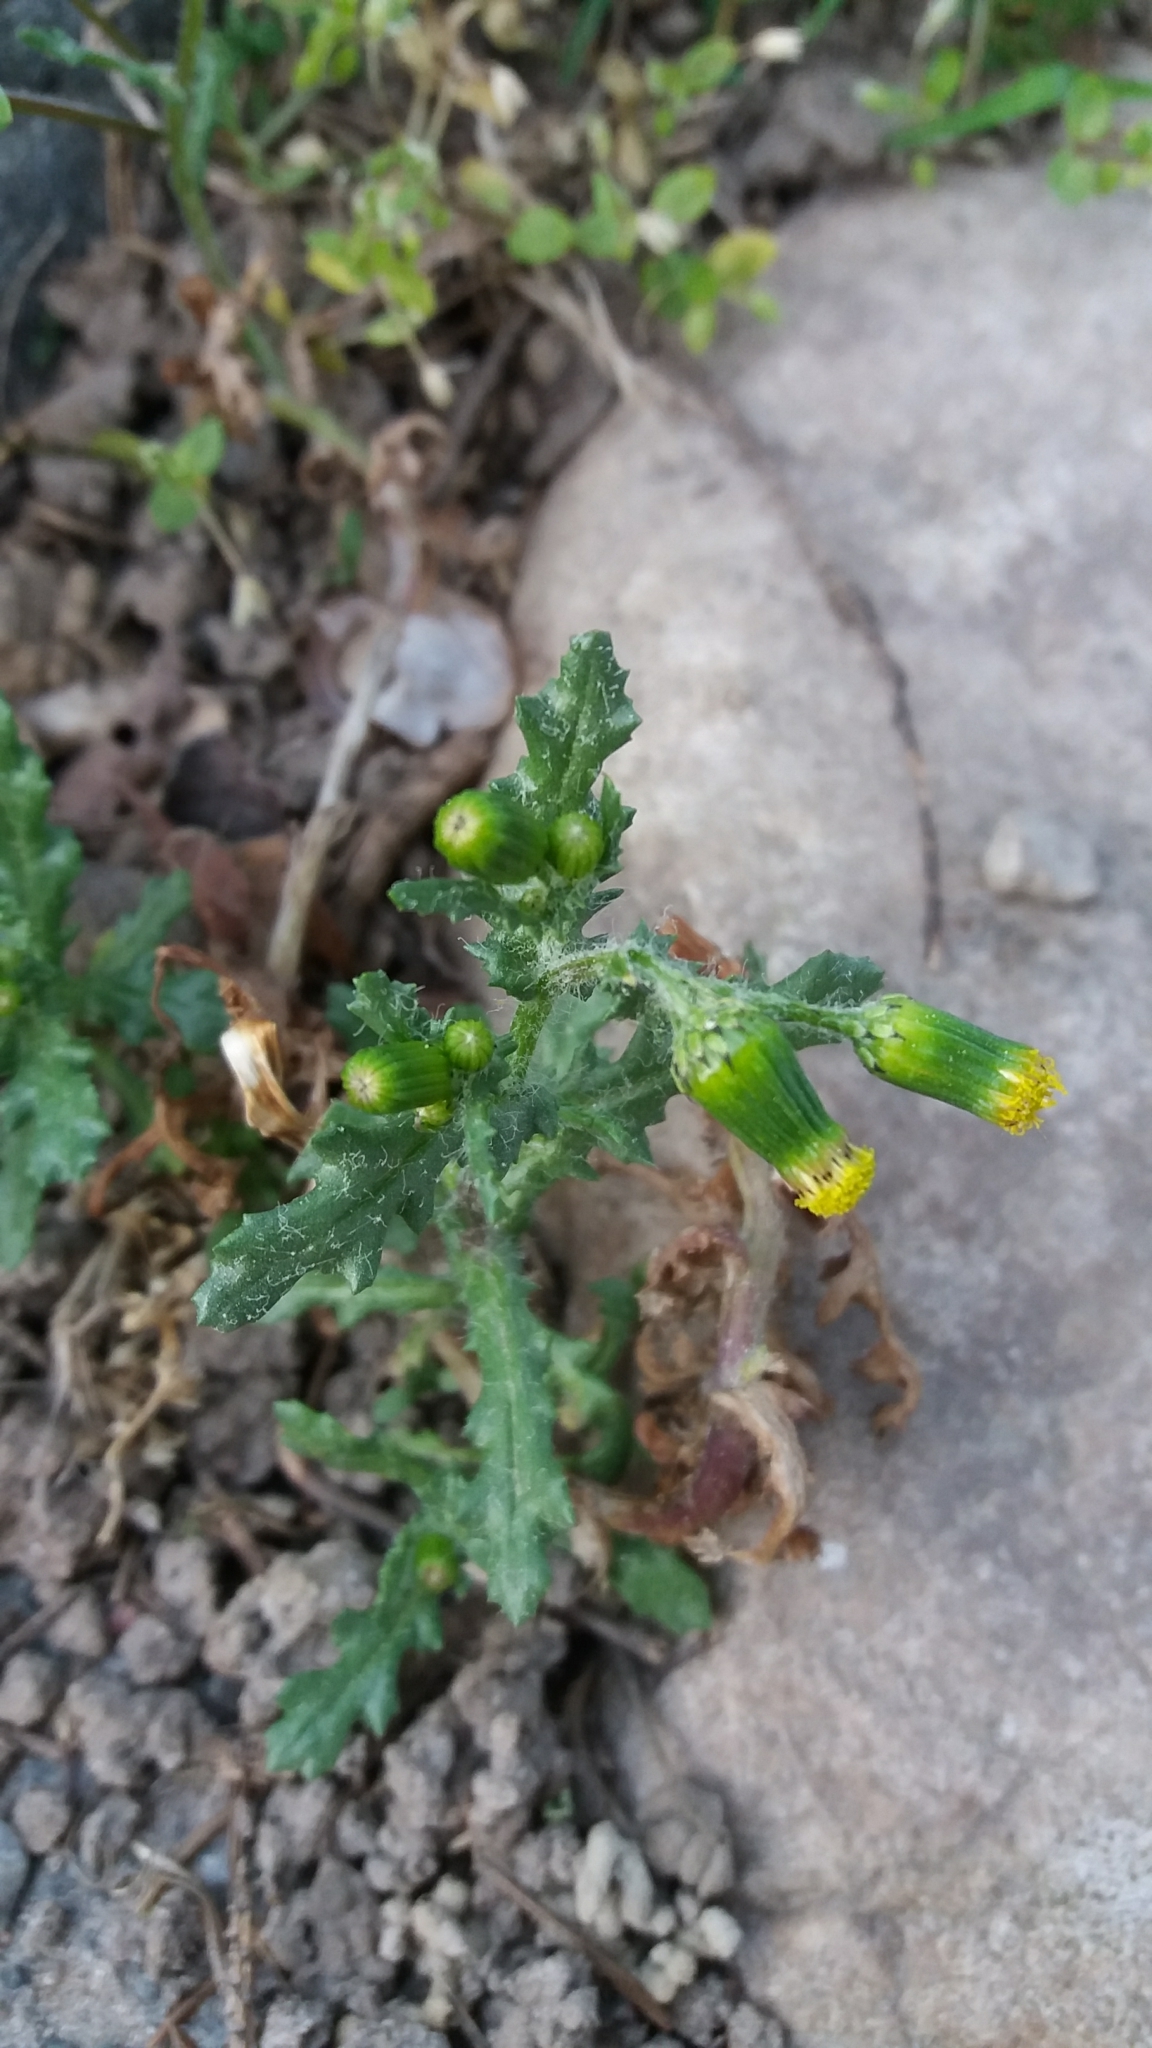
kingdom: Plantae
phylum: Tracheophyta
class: Magnoliopsida
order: Asterales
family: Asteraceae
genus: Senecio
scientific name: Senecio vulgaris
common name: Old-man-in-the-spring
